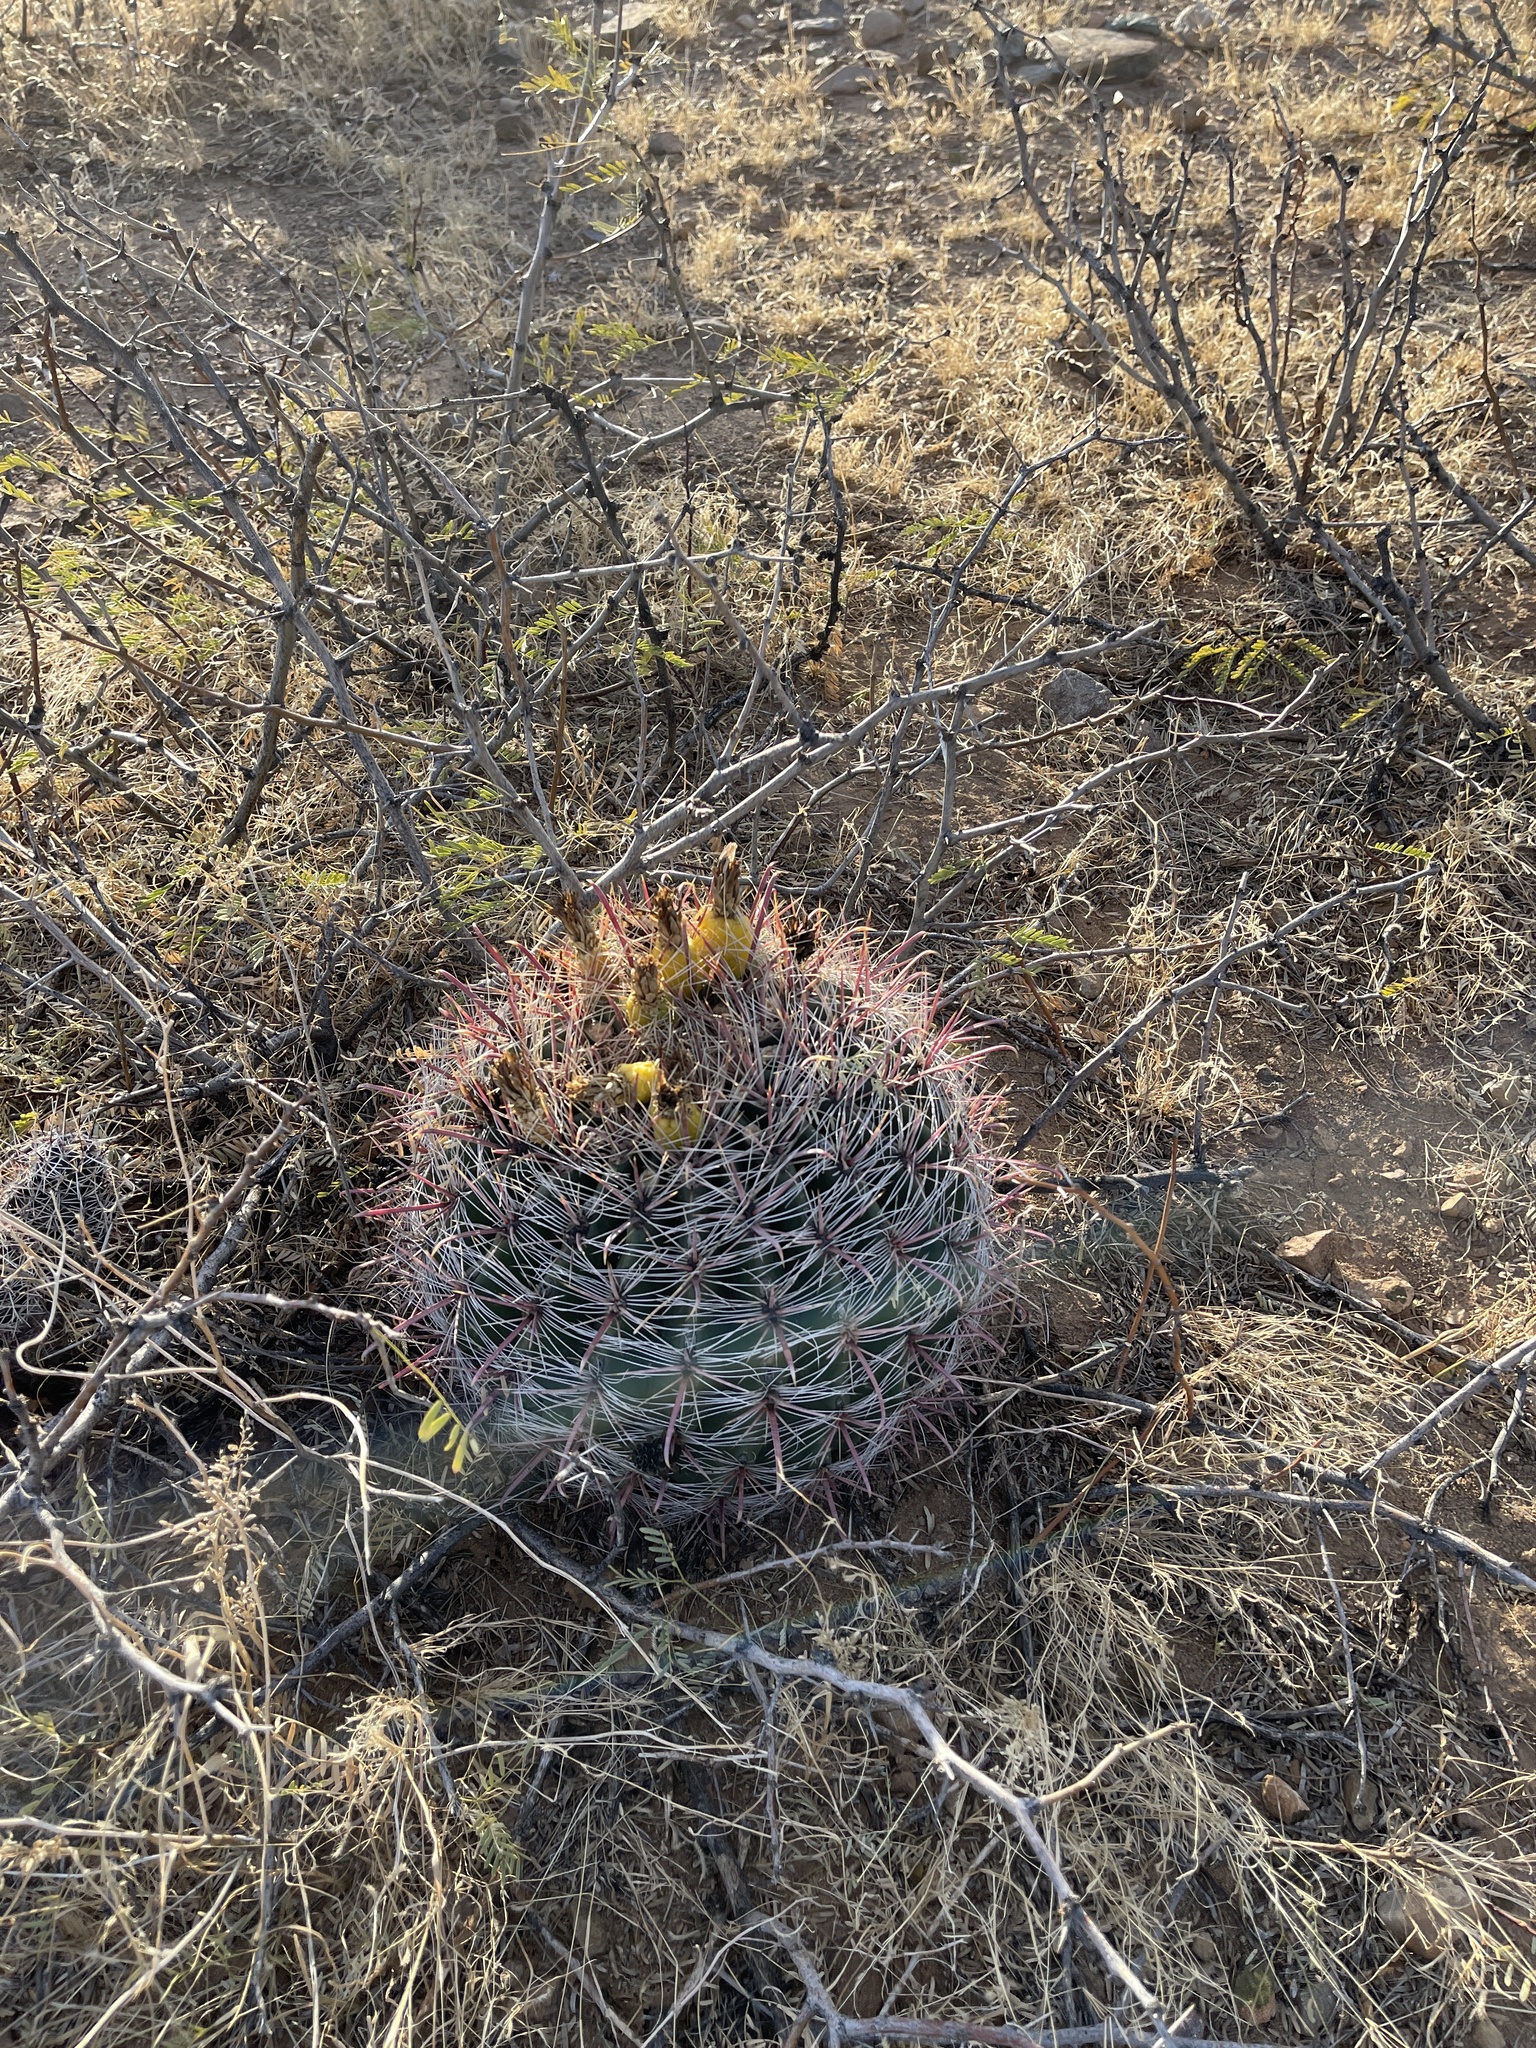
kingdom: Plantae
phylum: Tracheophyta
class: Magnoliopsida
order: Caryophyllales
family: Cactaceae
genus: Ferocactus
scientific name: Ferocactus wislizeni
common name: Candy barrel cactus
